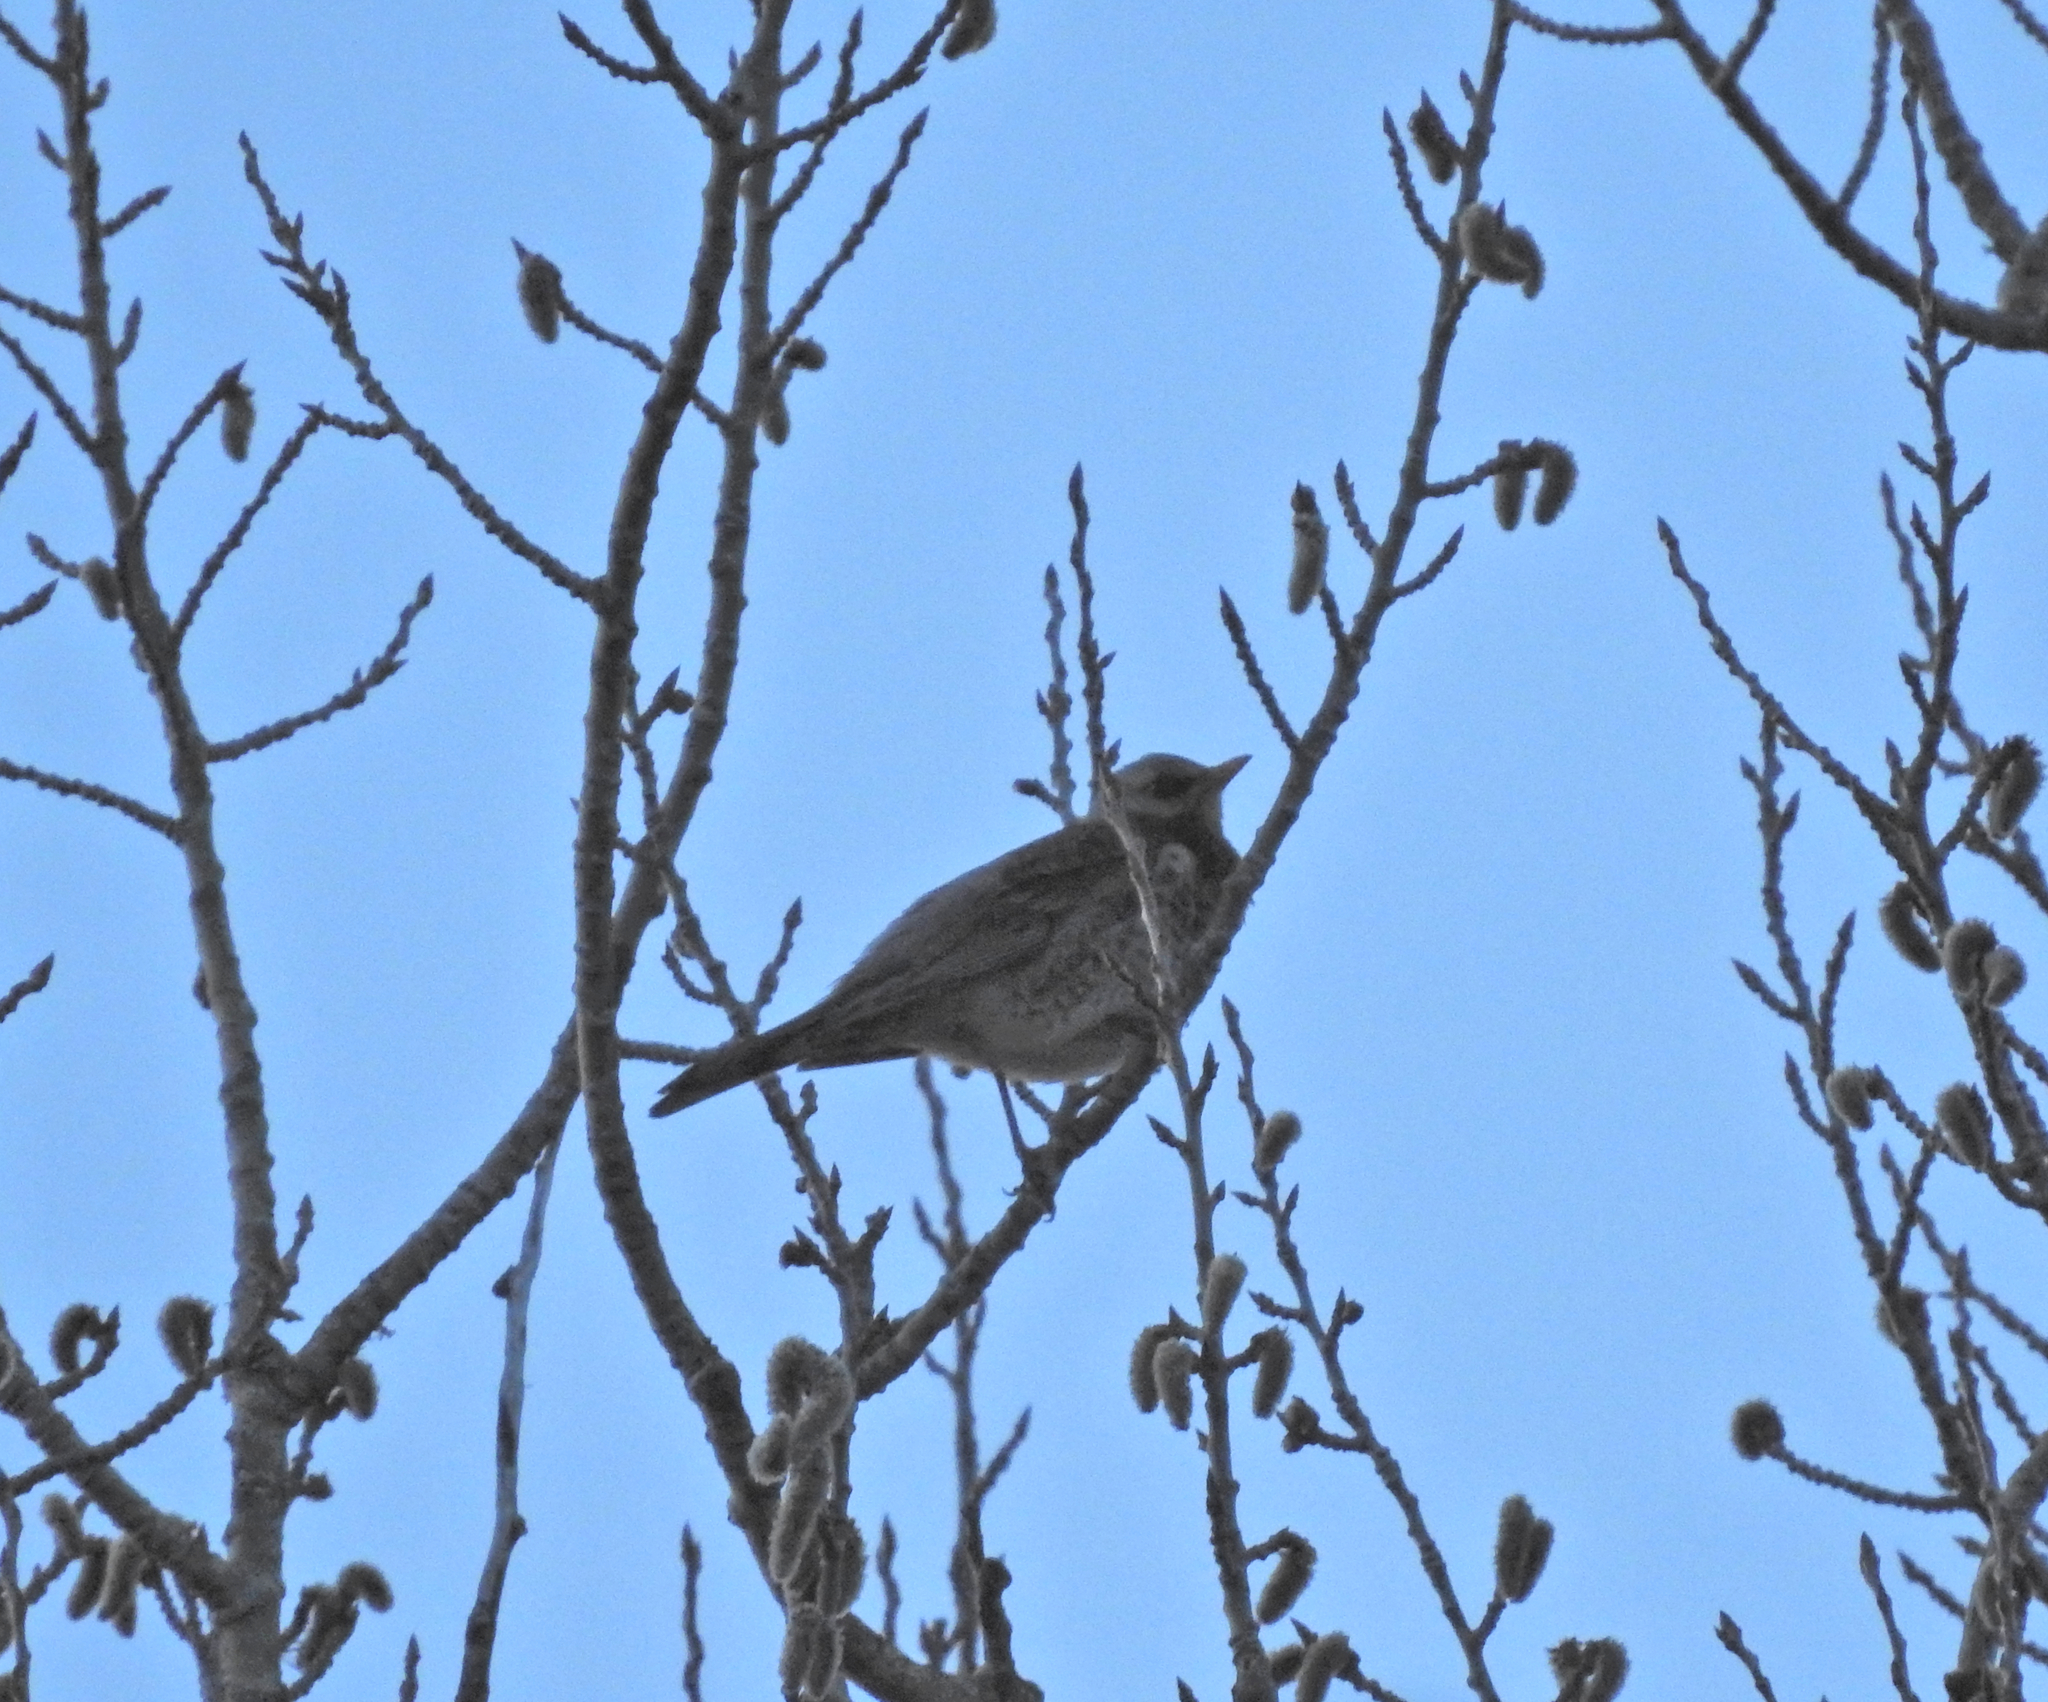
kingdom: Animalia
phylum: Chordata
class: Aves
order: Passeriformes
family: Turdidae
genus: Turdus
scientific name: Turdus pilaris
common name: Fieldfare
